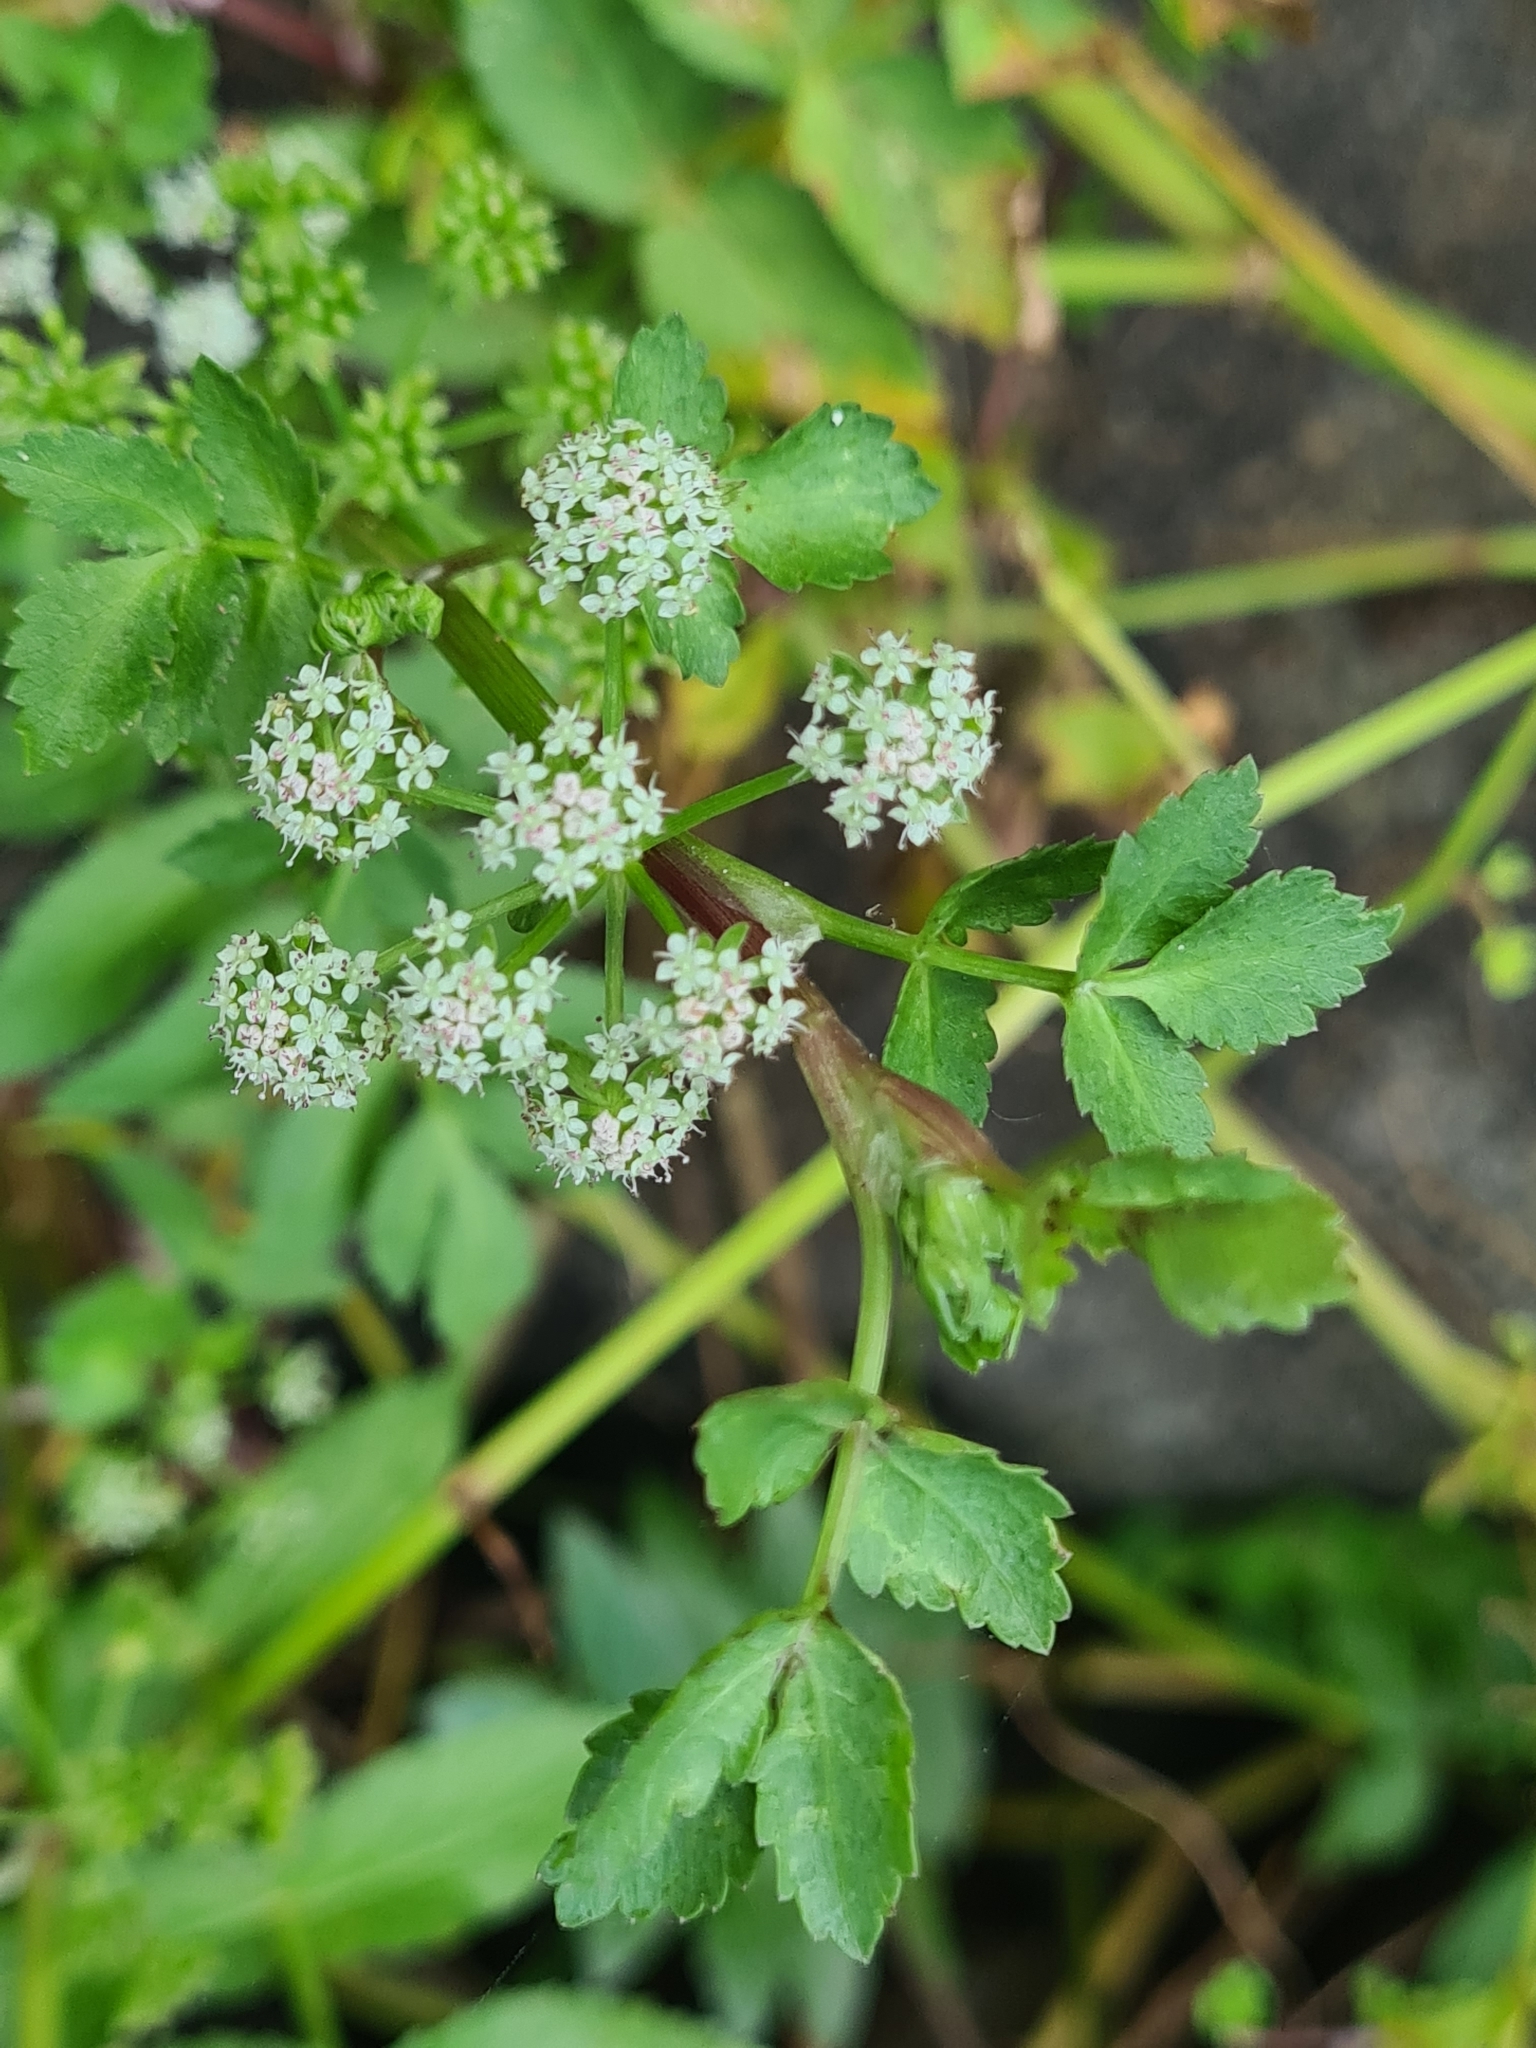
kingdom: Plantae
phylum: Tracheophyta
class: Magnoliopsida
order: Apiales
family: Apiaceae
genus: Helosciadium
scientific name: Helosciadium nodiflorum
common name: Fool's-watercress
